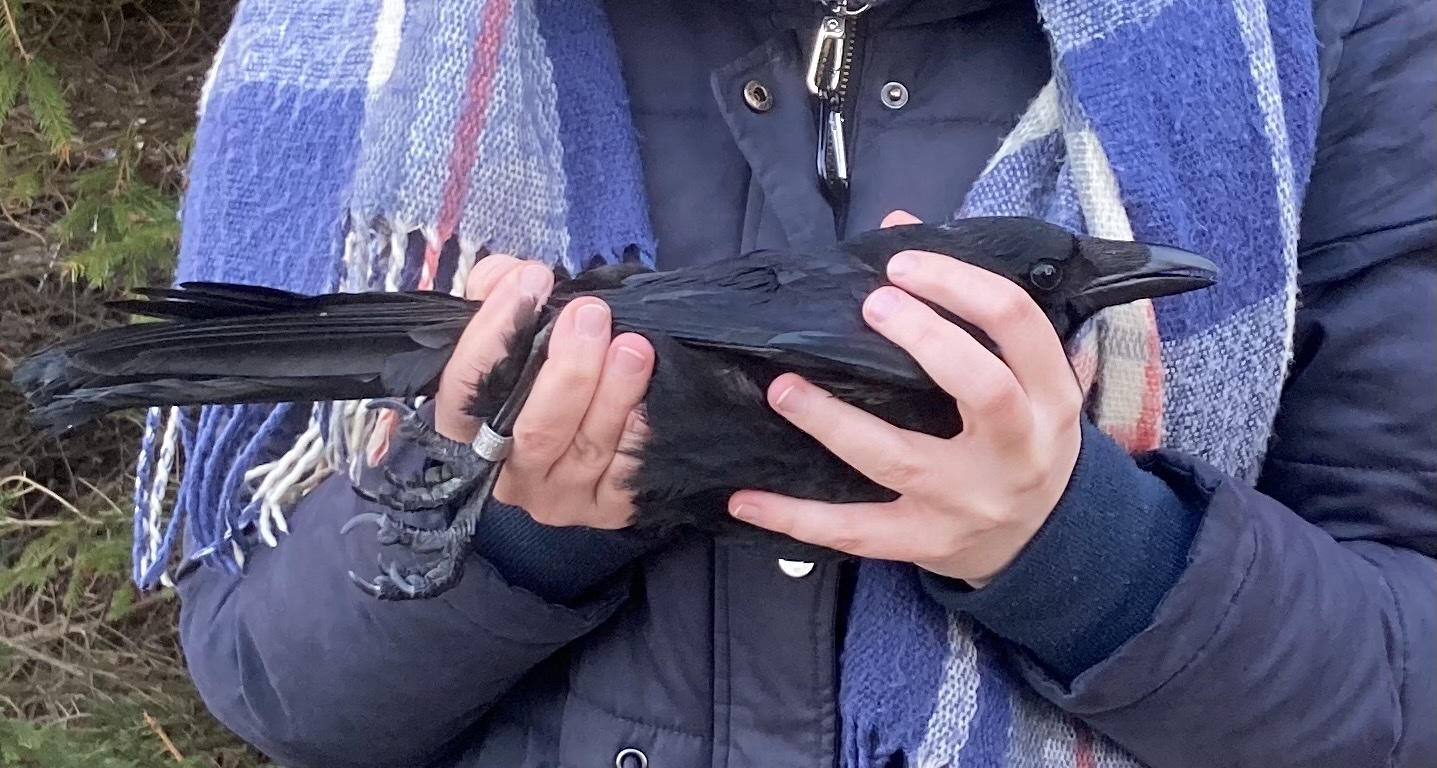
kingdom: Animalia
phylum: Chordata
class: Aves
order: Passeriformes
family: Corvidae
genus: Corvus
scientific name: Corvus corone
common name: Carrion crow
